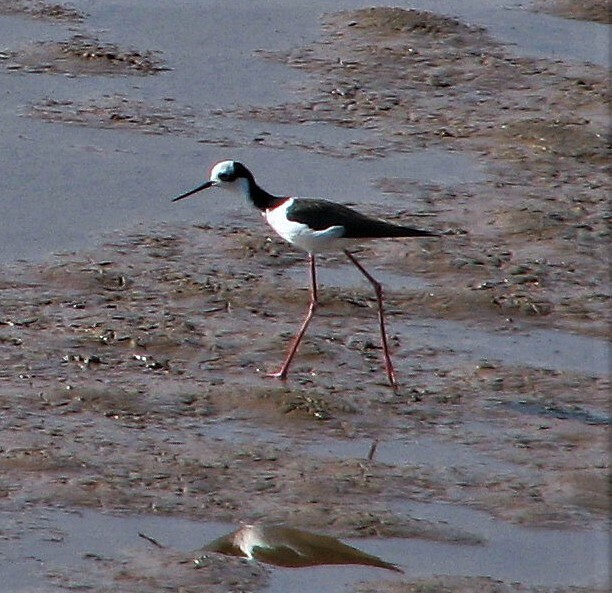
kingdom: Animalia
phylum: Chordata
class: Aves
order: Charadriiformes
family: Recurvirostridae
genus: Himantopus
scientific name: Himantopus mexicanus
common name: Black-necked stilt
